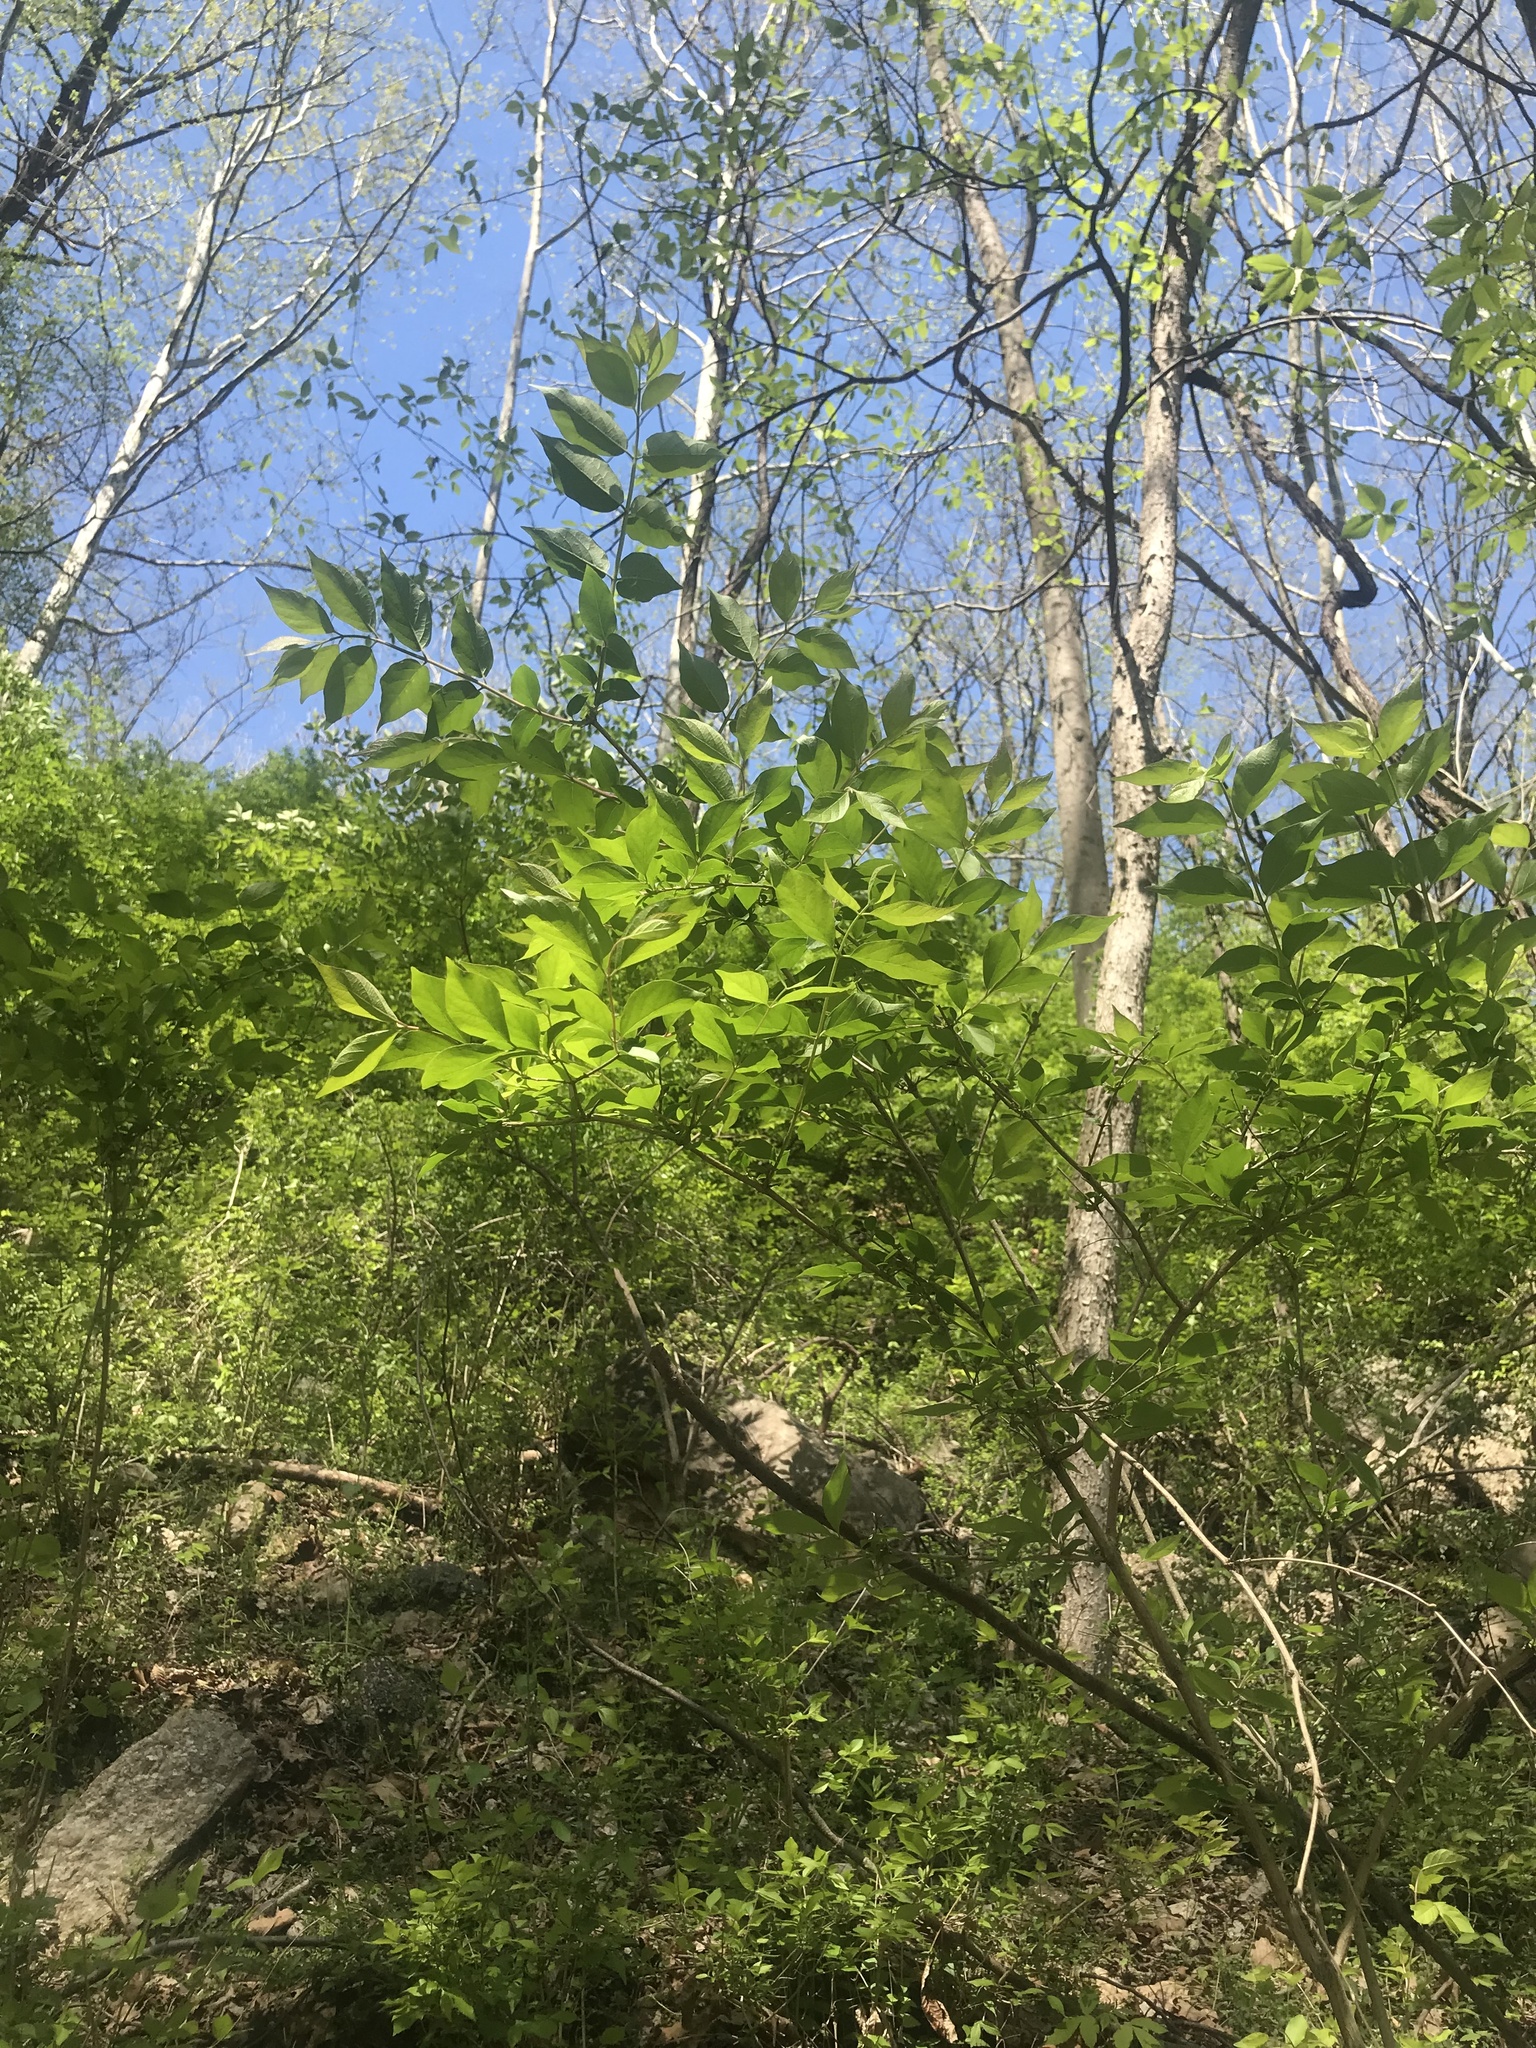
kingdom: Plantae
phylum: Tracheophyta
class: Magnoliopsida
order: Dipsacales
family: Caprifoliaceae
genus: Lonicera
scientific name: Lonicera maackii
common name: Amur honeysuckle
